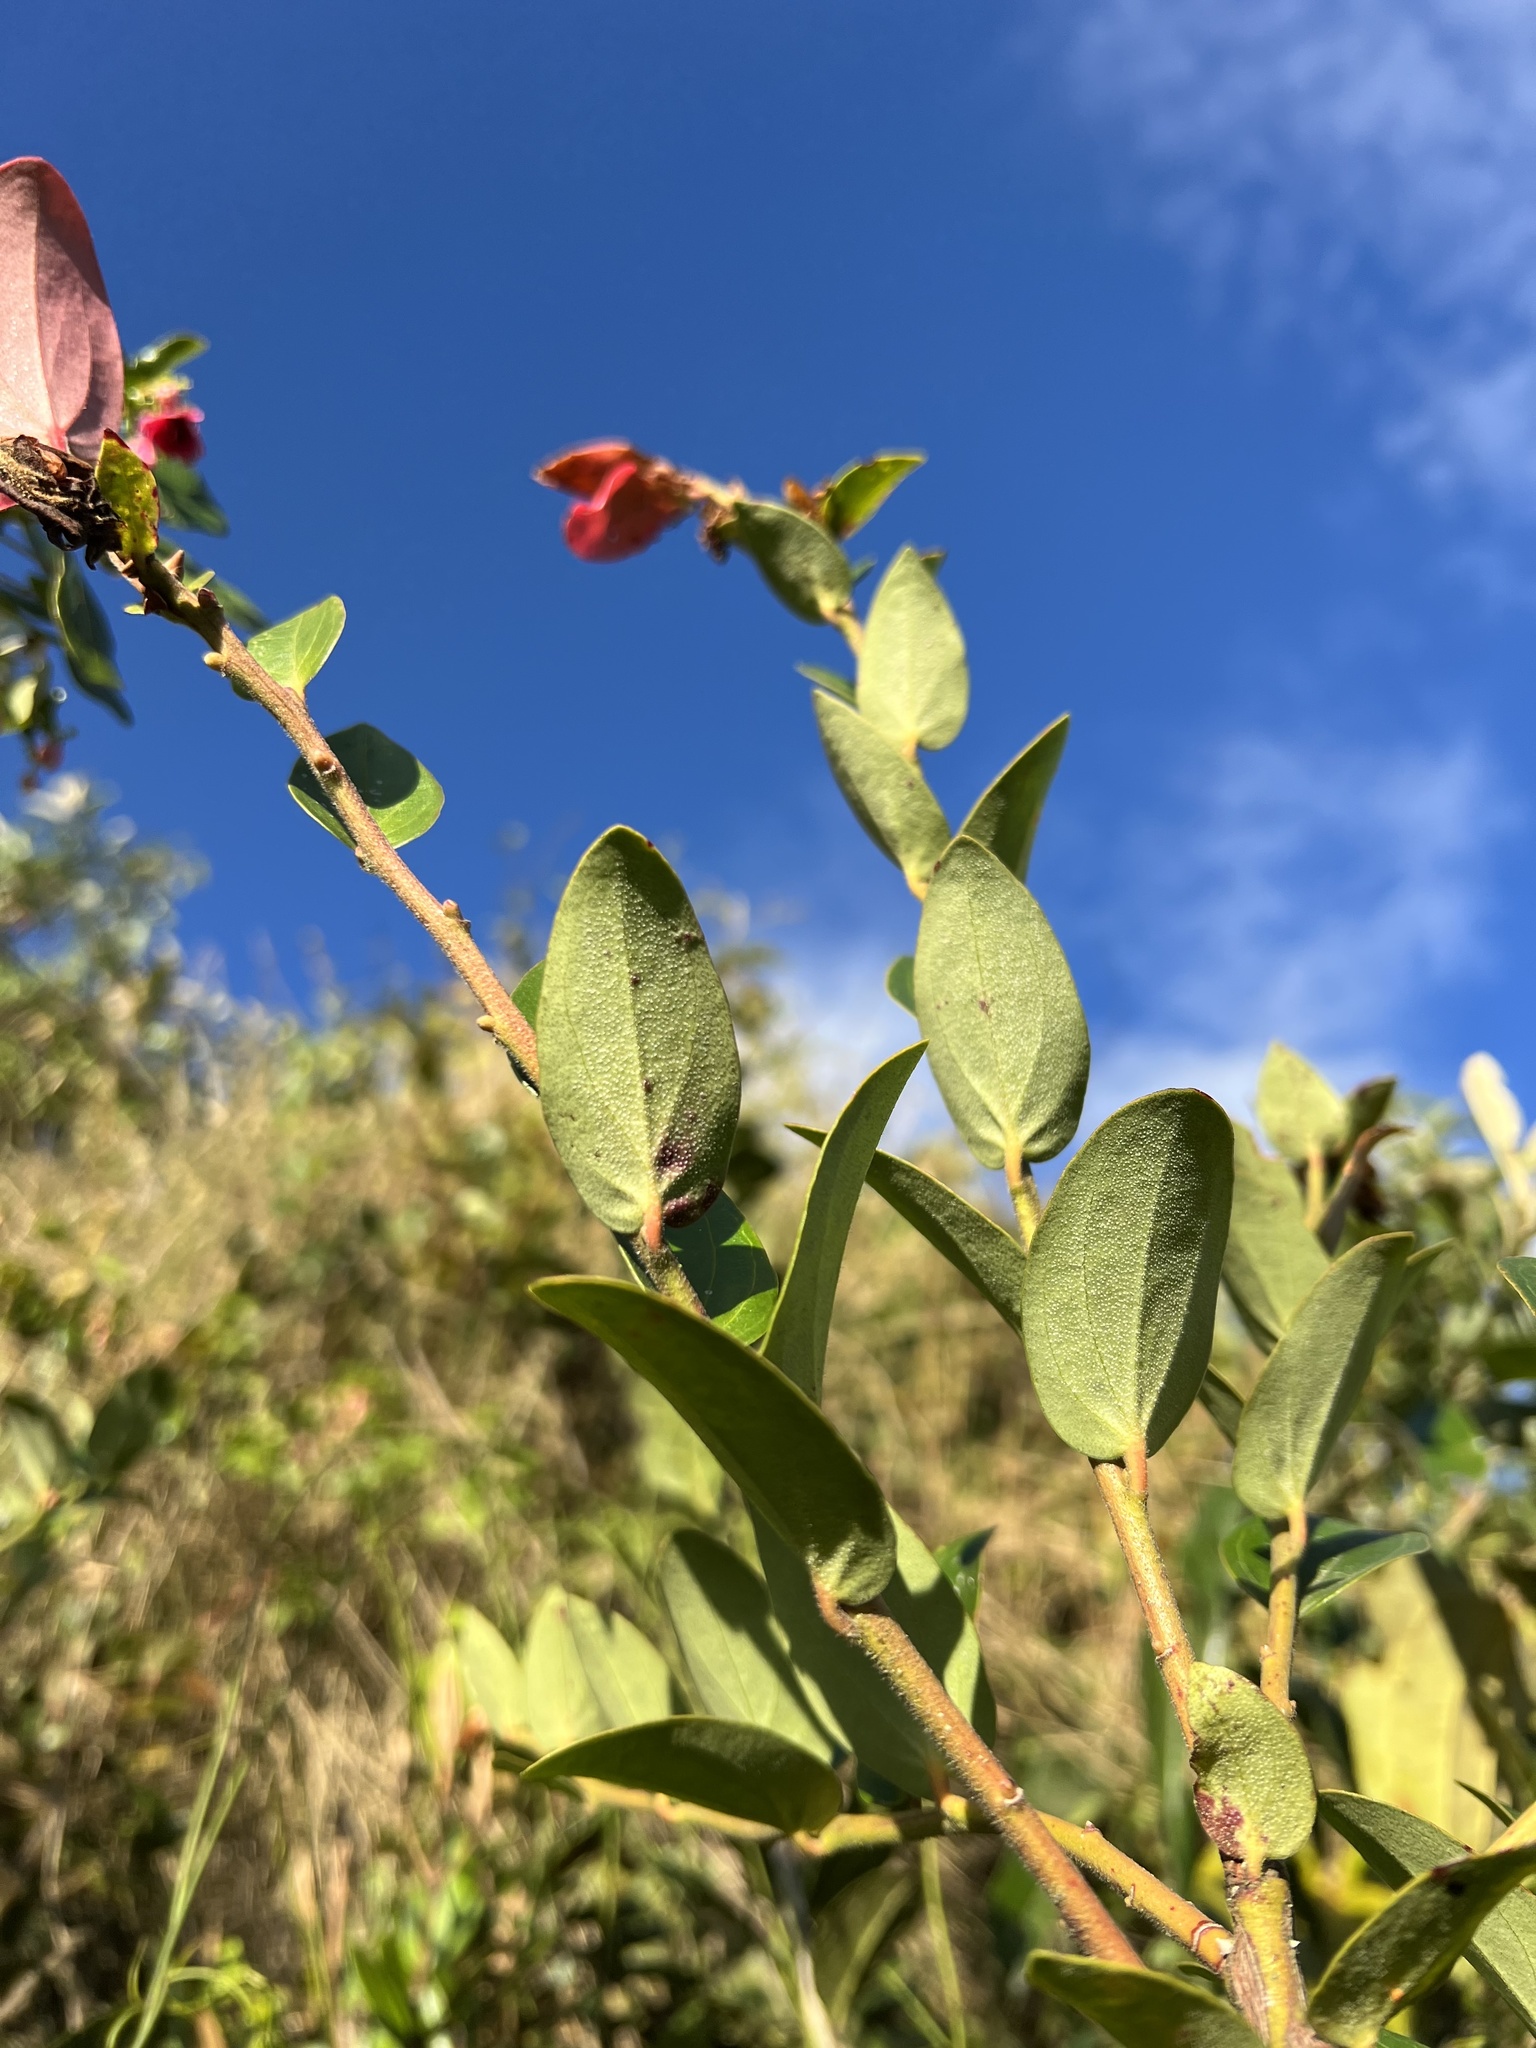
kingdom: Plantae
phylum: Tracheophyta
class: Magnoliopsida
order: Ericales
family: Ericaceae
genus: Cavendishia
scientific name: Cavendishia bracteata
